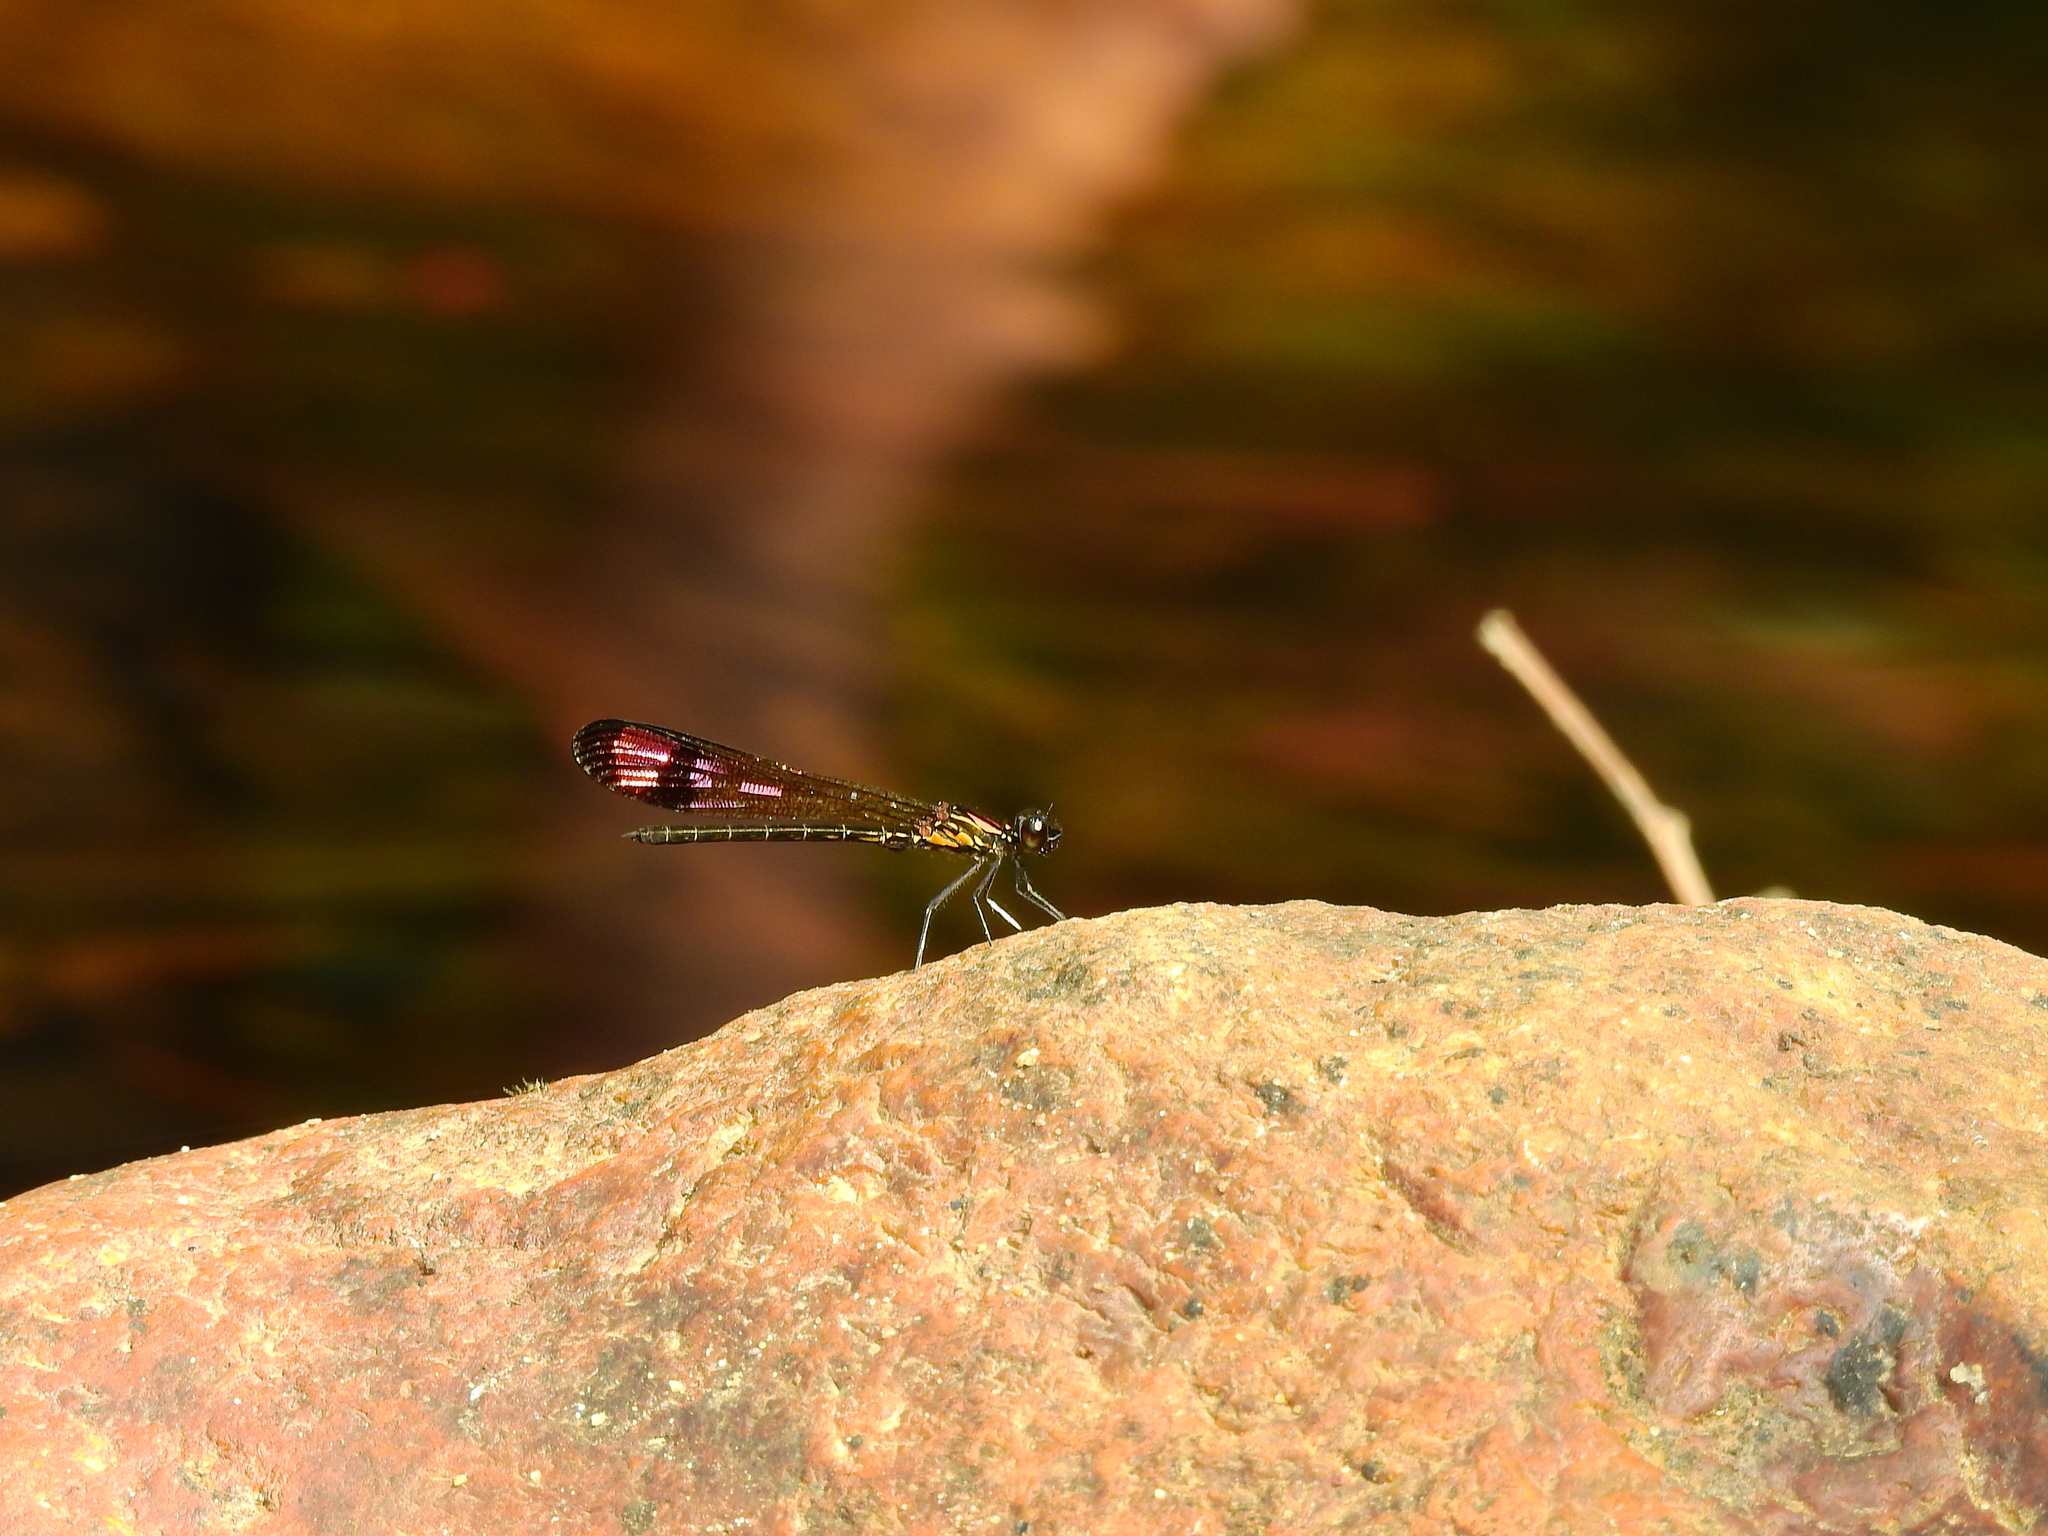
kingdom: Animalia
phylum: Arthropoda
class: Insecta
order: Odonata
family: Chlorocyphidae
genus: Heliocypha
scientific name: Heliocypha bisignata
